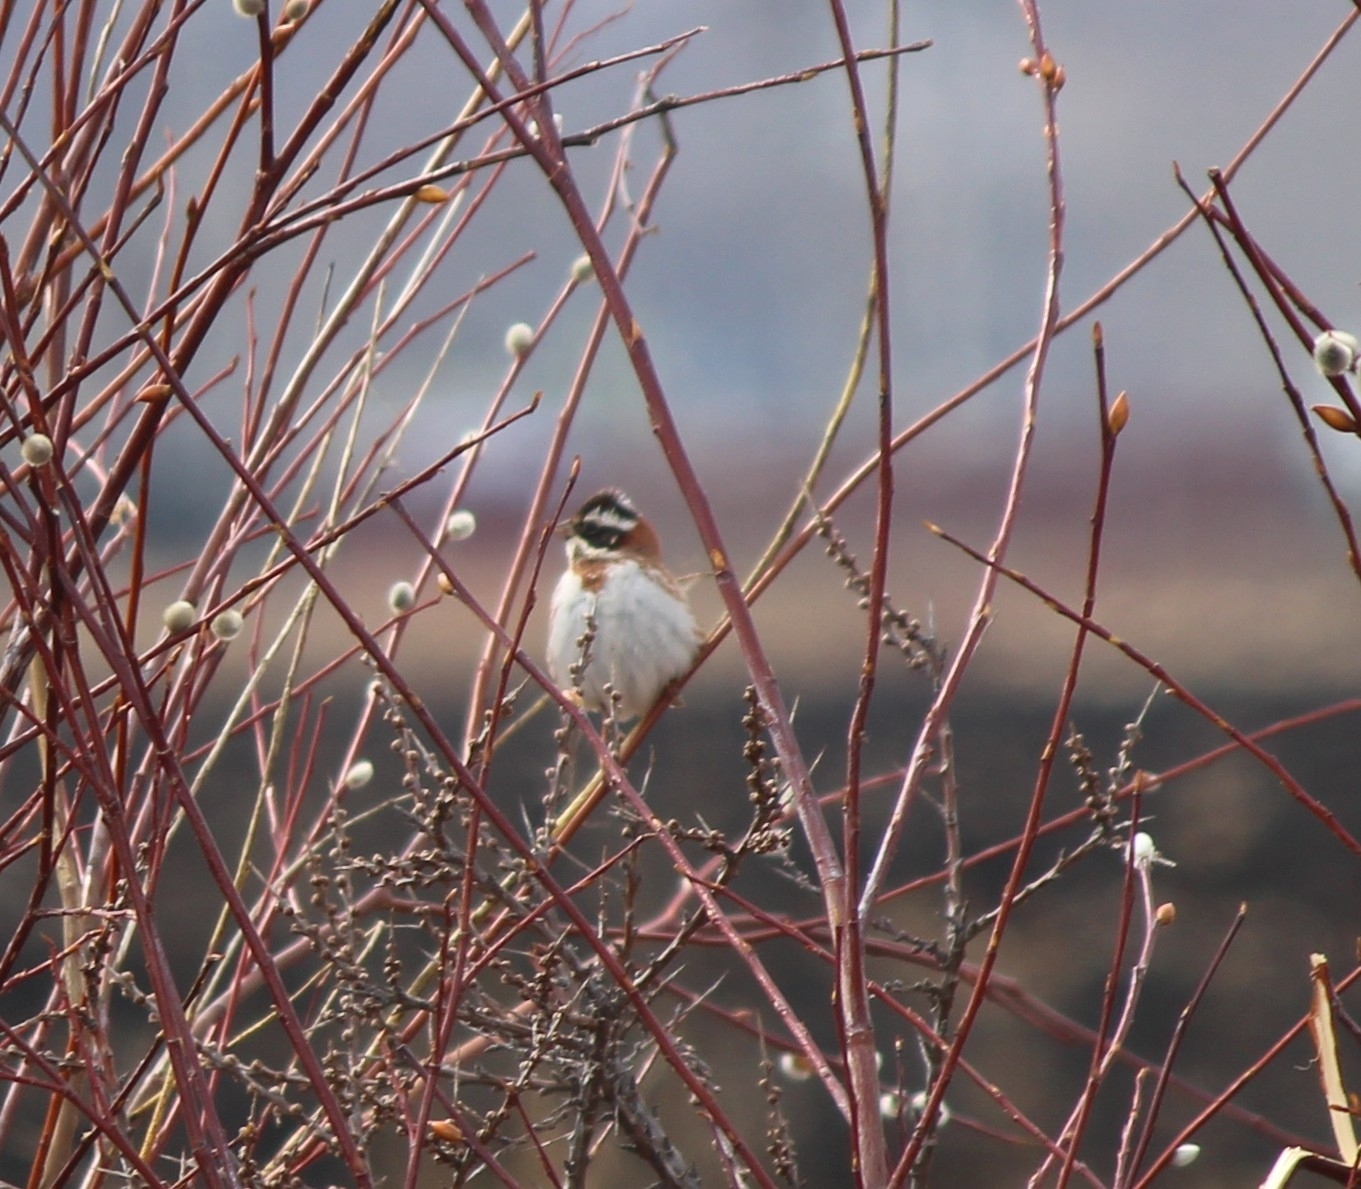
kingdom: Animalia
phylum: Chordata
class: Aves
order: Passeriformes
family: Emberizidae
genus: Emberiza
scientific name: Emberiza rustica
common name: Rustic bunting
